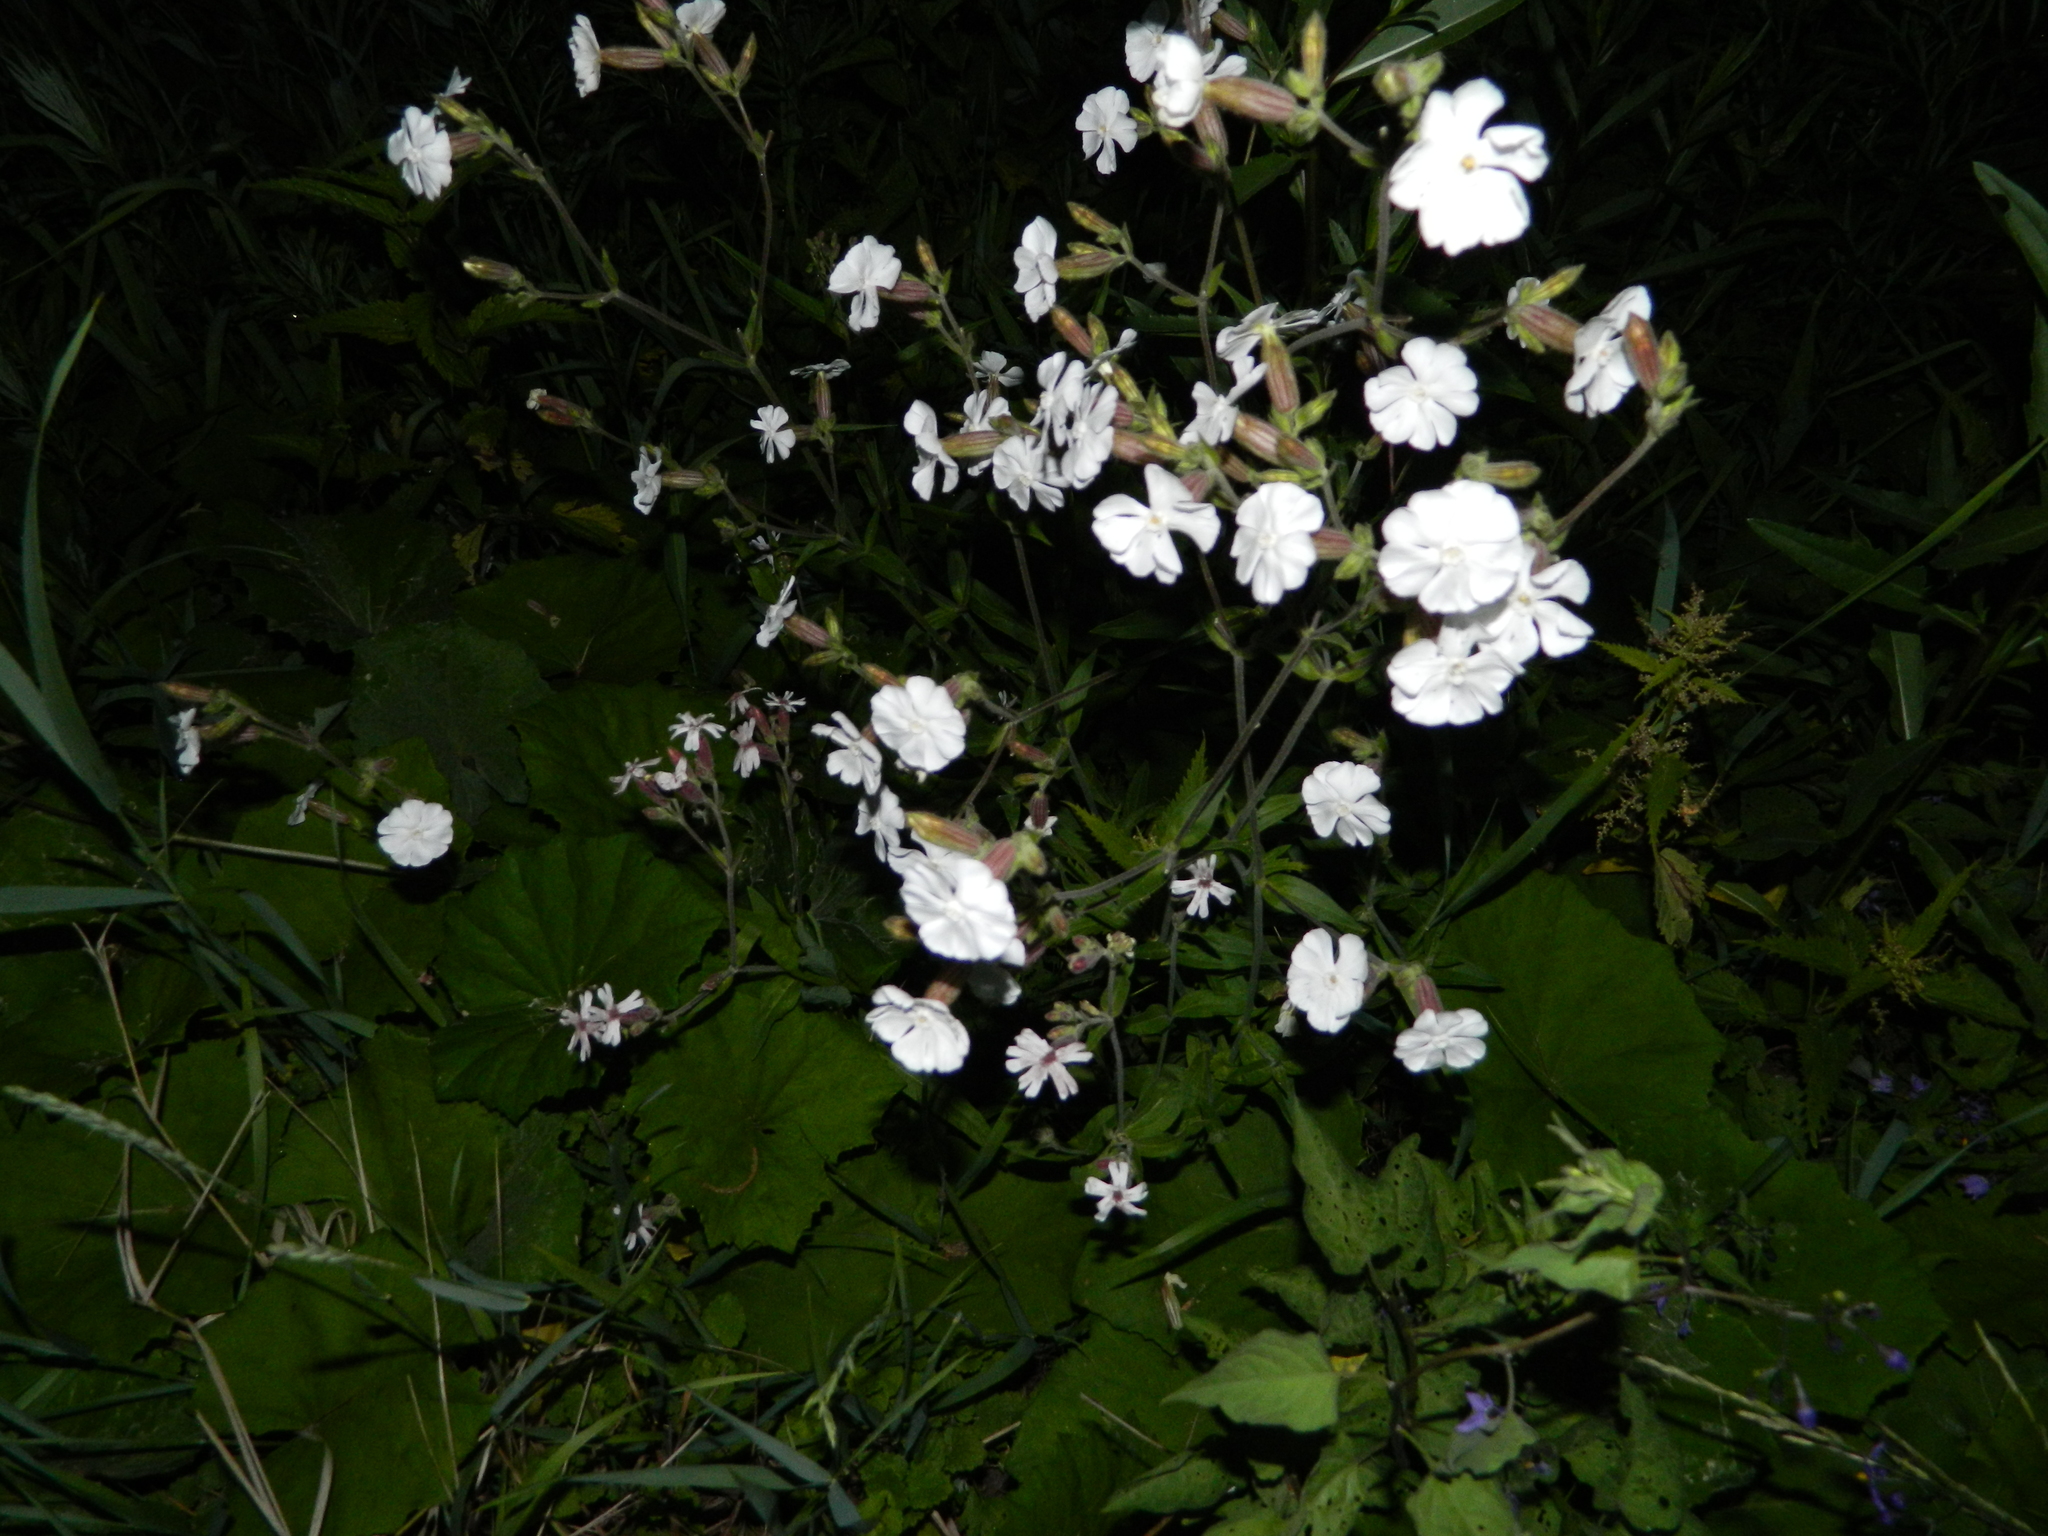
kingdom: Plantae
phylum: Tracheophyta
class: Magnoliopsida
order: Caryophyllales
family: Caryophyllaceae
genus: Silene
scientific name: Silene latifolia
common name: White campion
